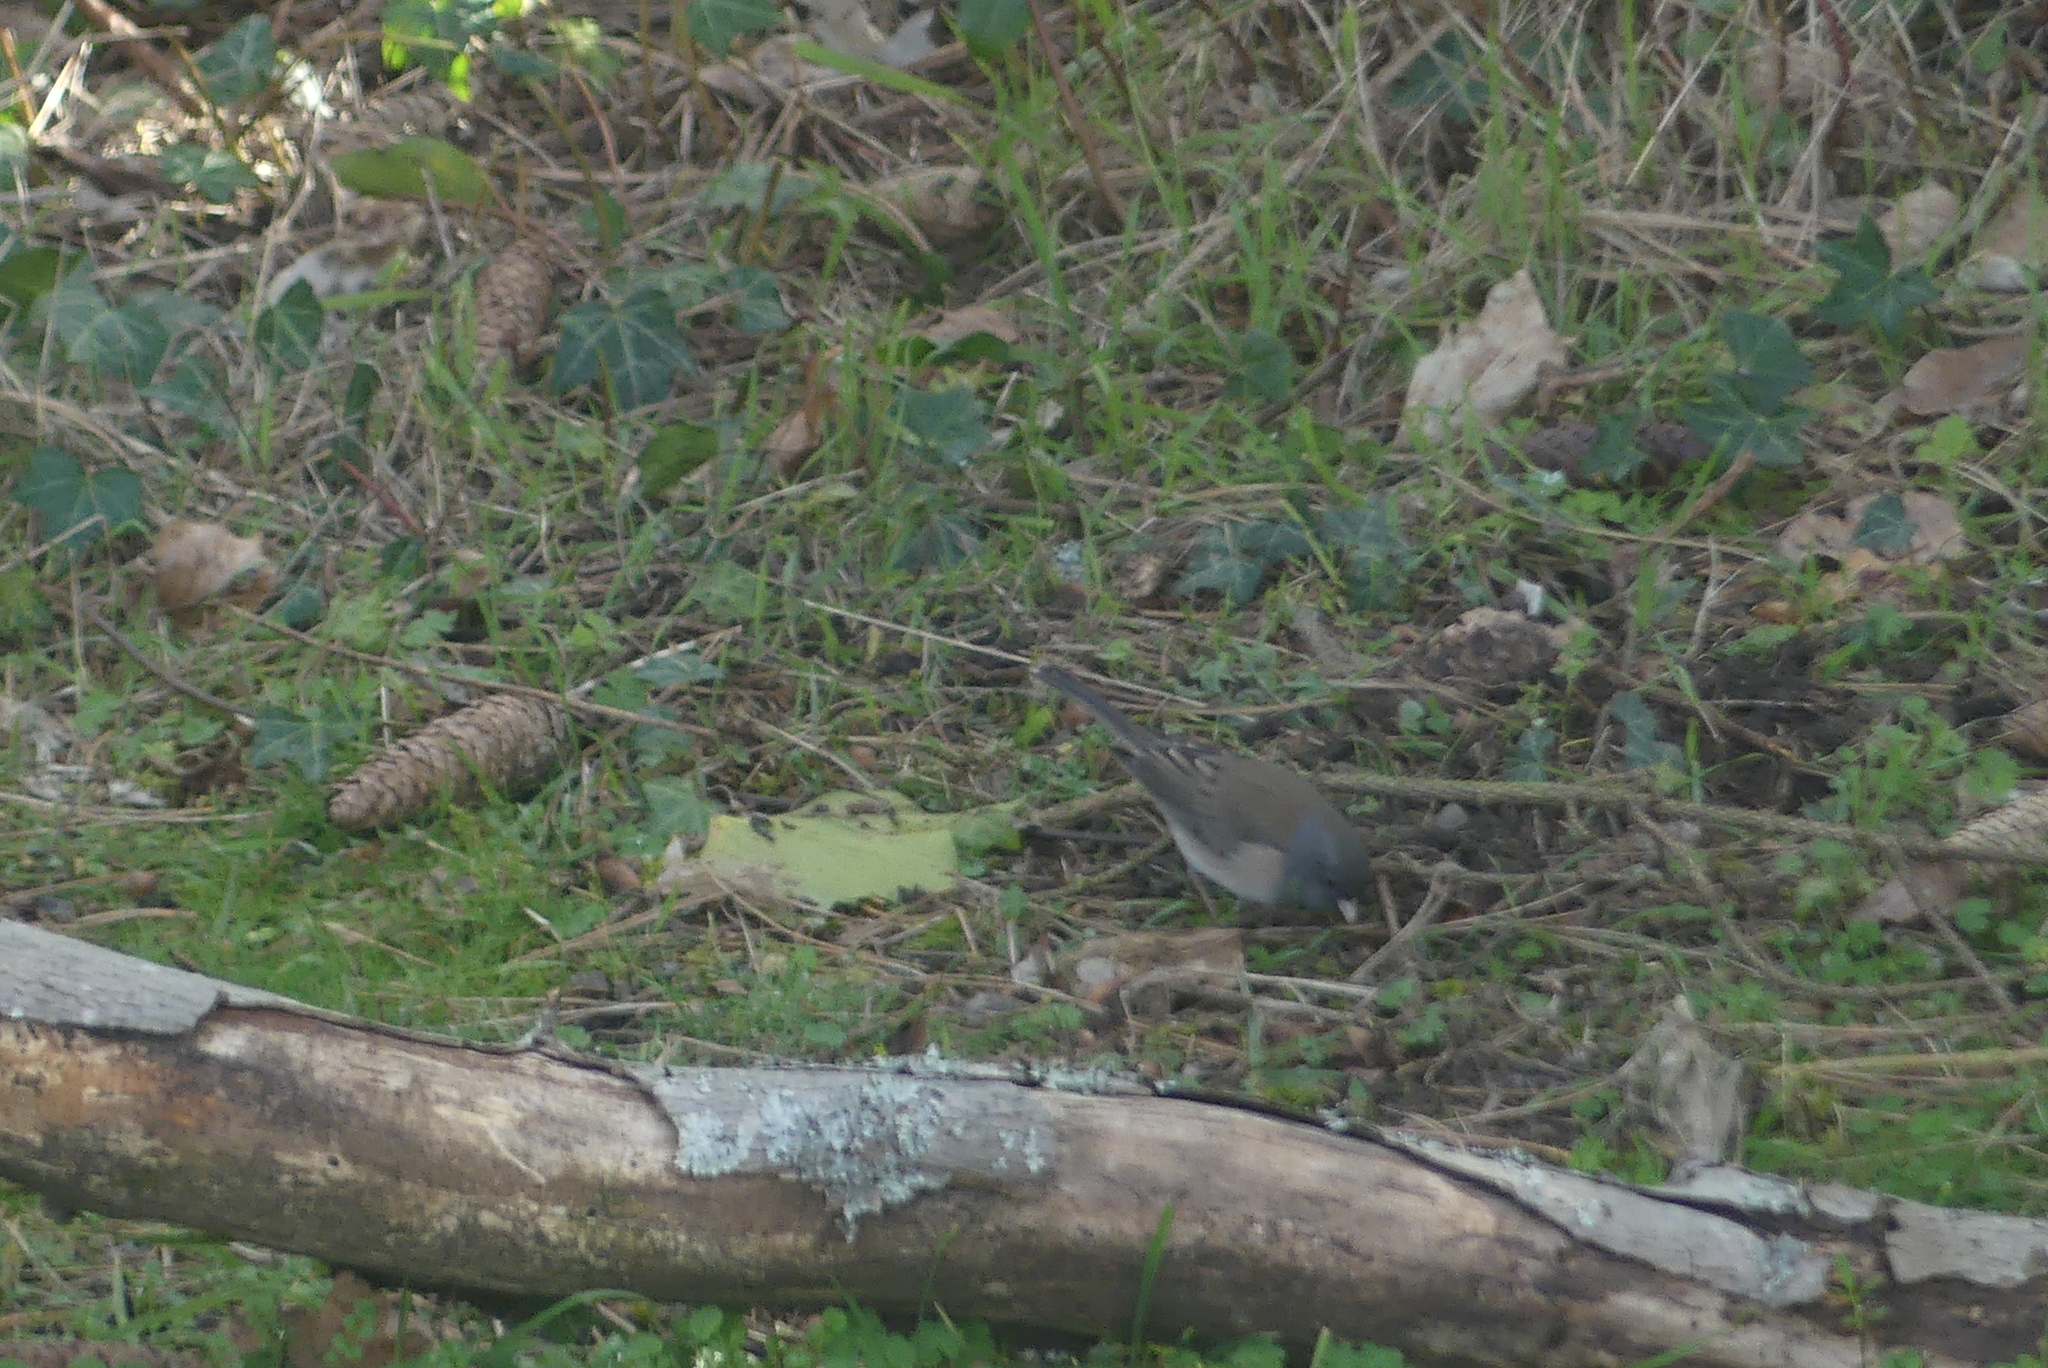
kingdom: Animalia
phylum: Chordata
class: Aves
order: Passeriformes
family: Passerellidae
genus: Junco
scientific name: Junco hyemalis
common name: Dark-eyed junco
